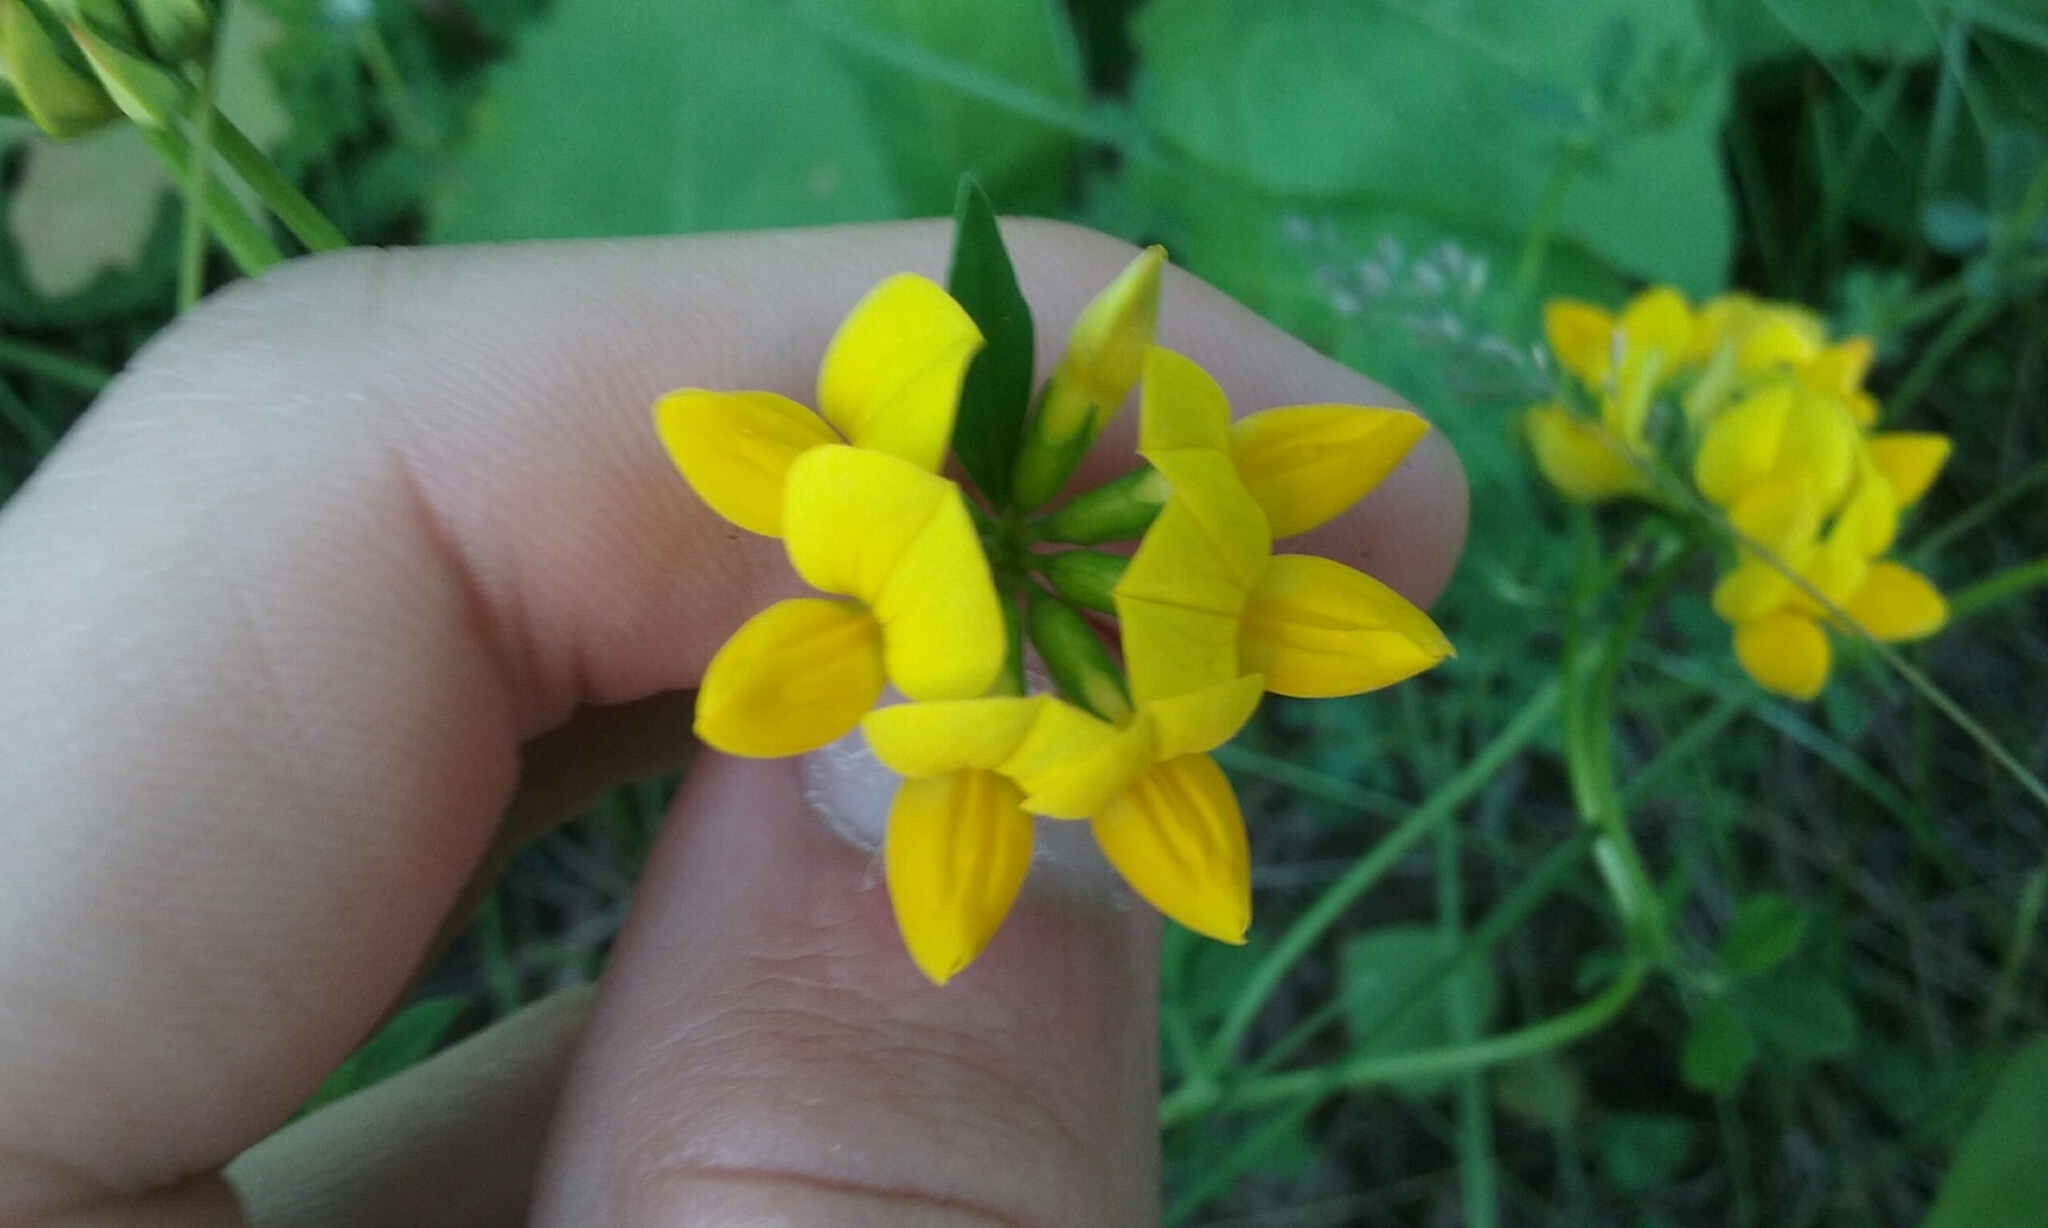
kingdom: Plantae
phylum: Tracheophyta
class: Magnoliopsida
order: Fabales
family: Fabaceae
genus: Lotus
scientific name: Lotus corniculatus
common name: Common bird's-foot-trefoil
